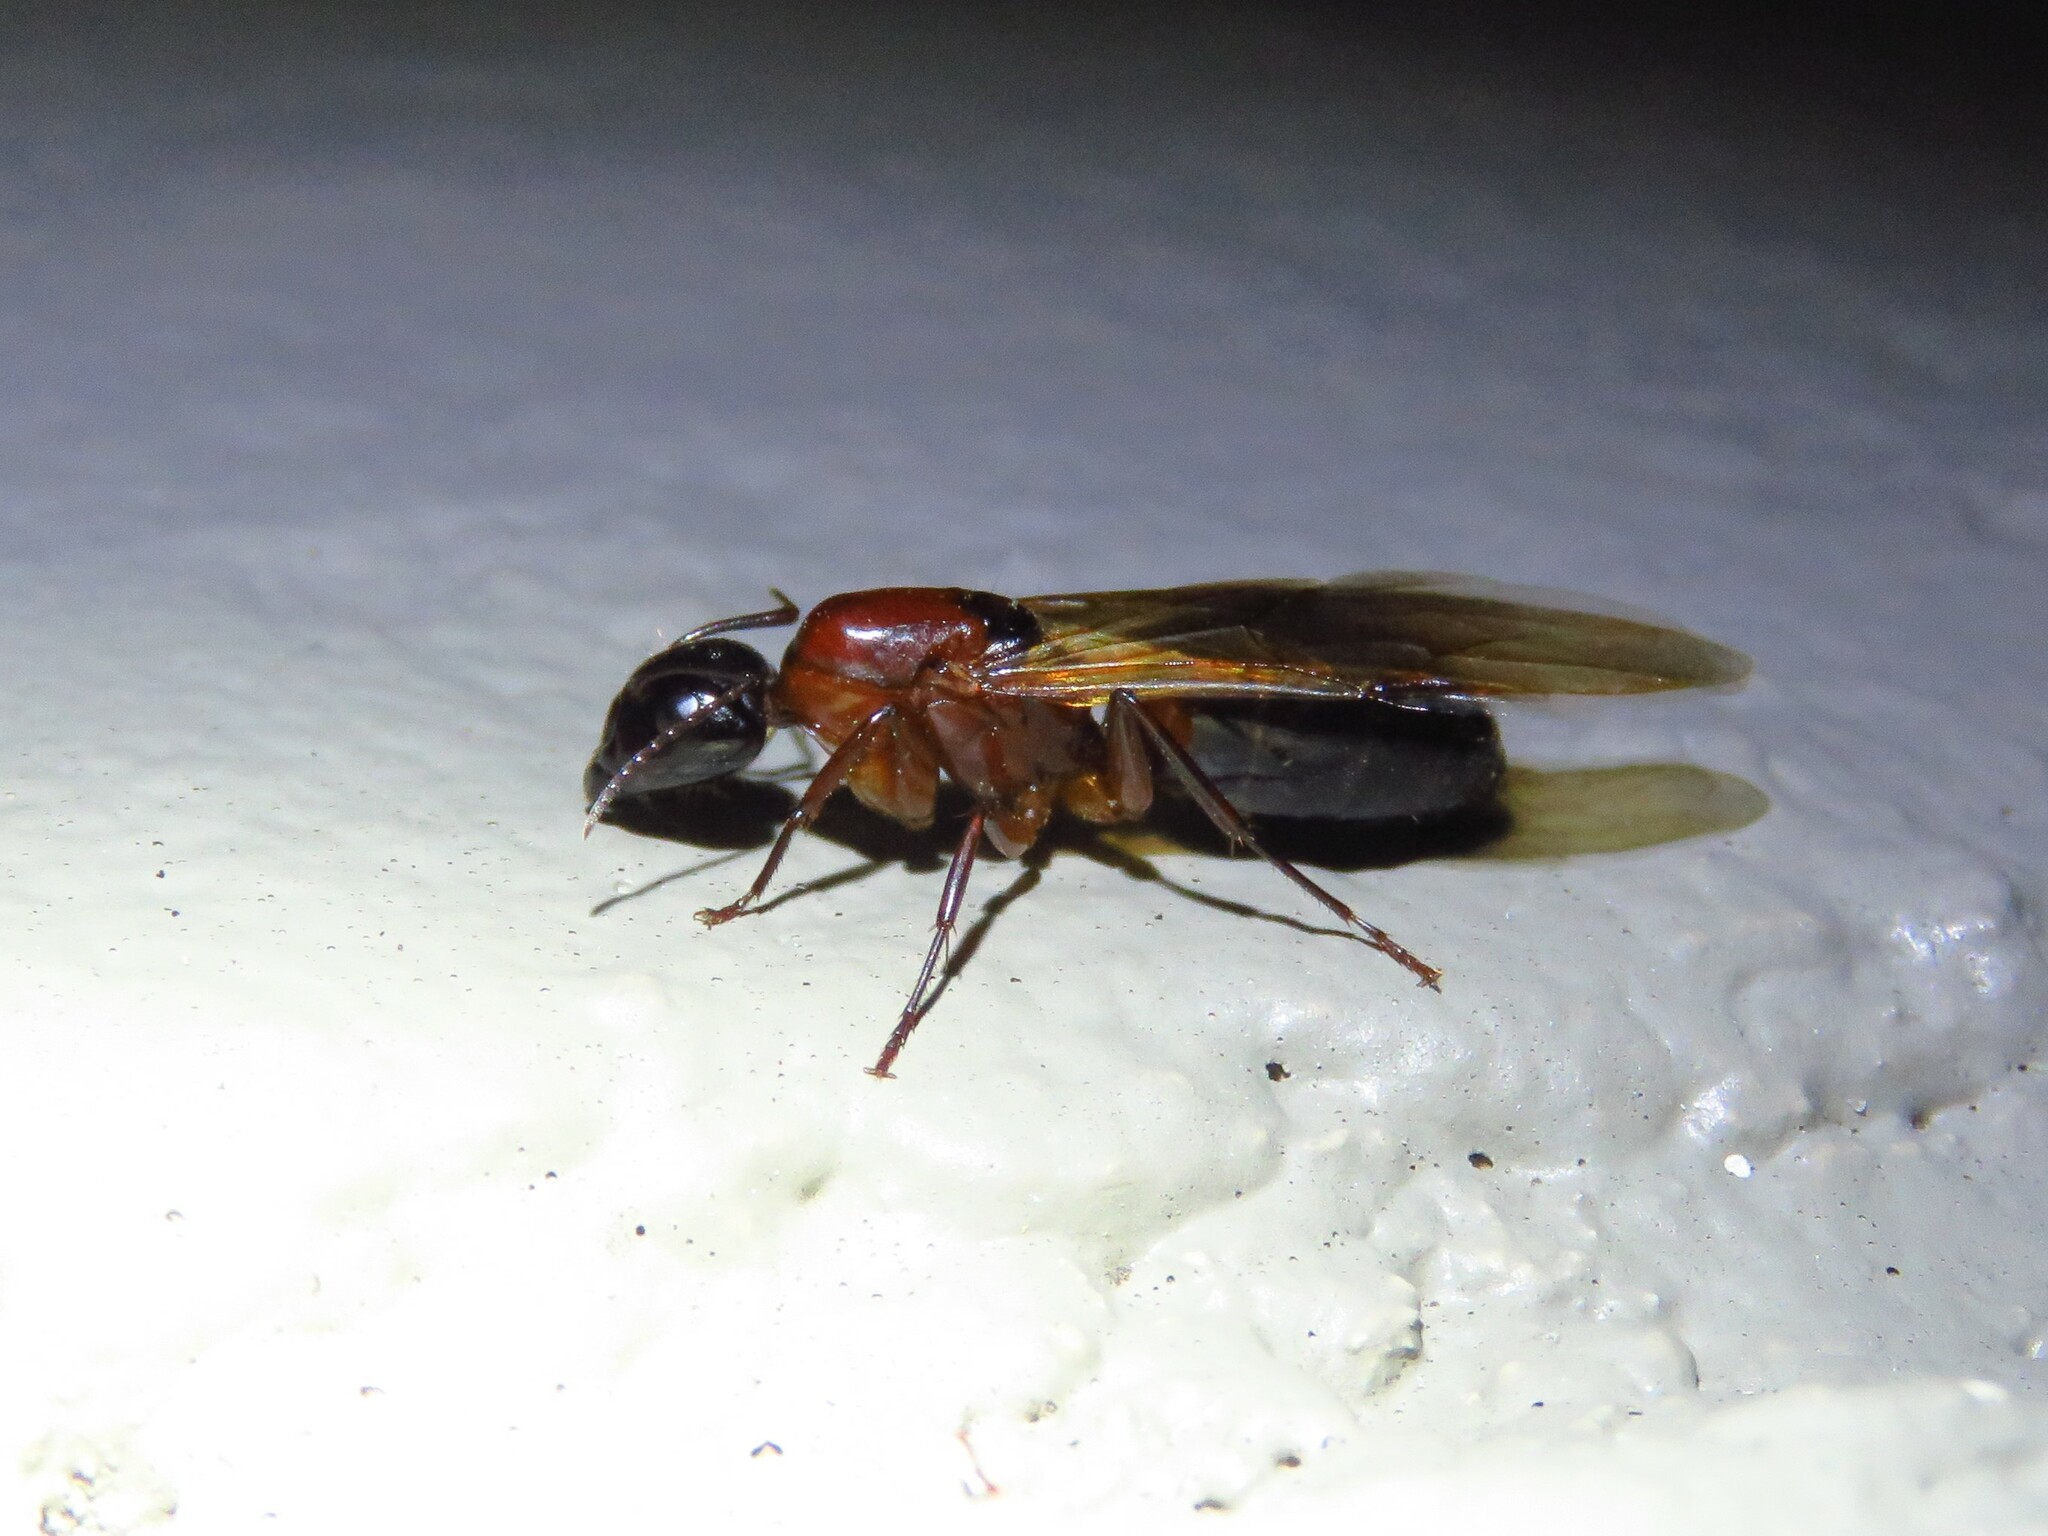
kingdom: Animalia
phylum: Arthropoda
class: Insecta
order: Hymenoptera
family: Formicidae
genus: Camponotus
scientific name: Camponotus texanus
